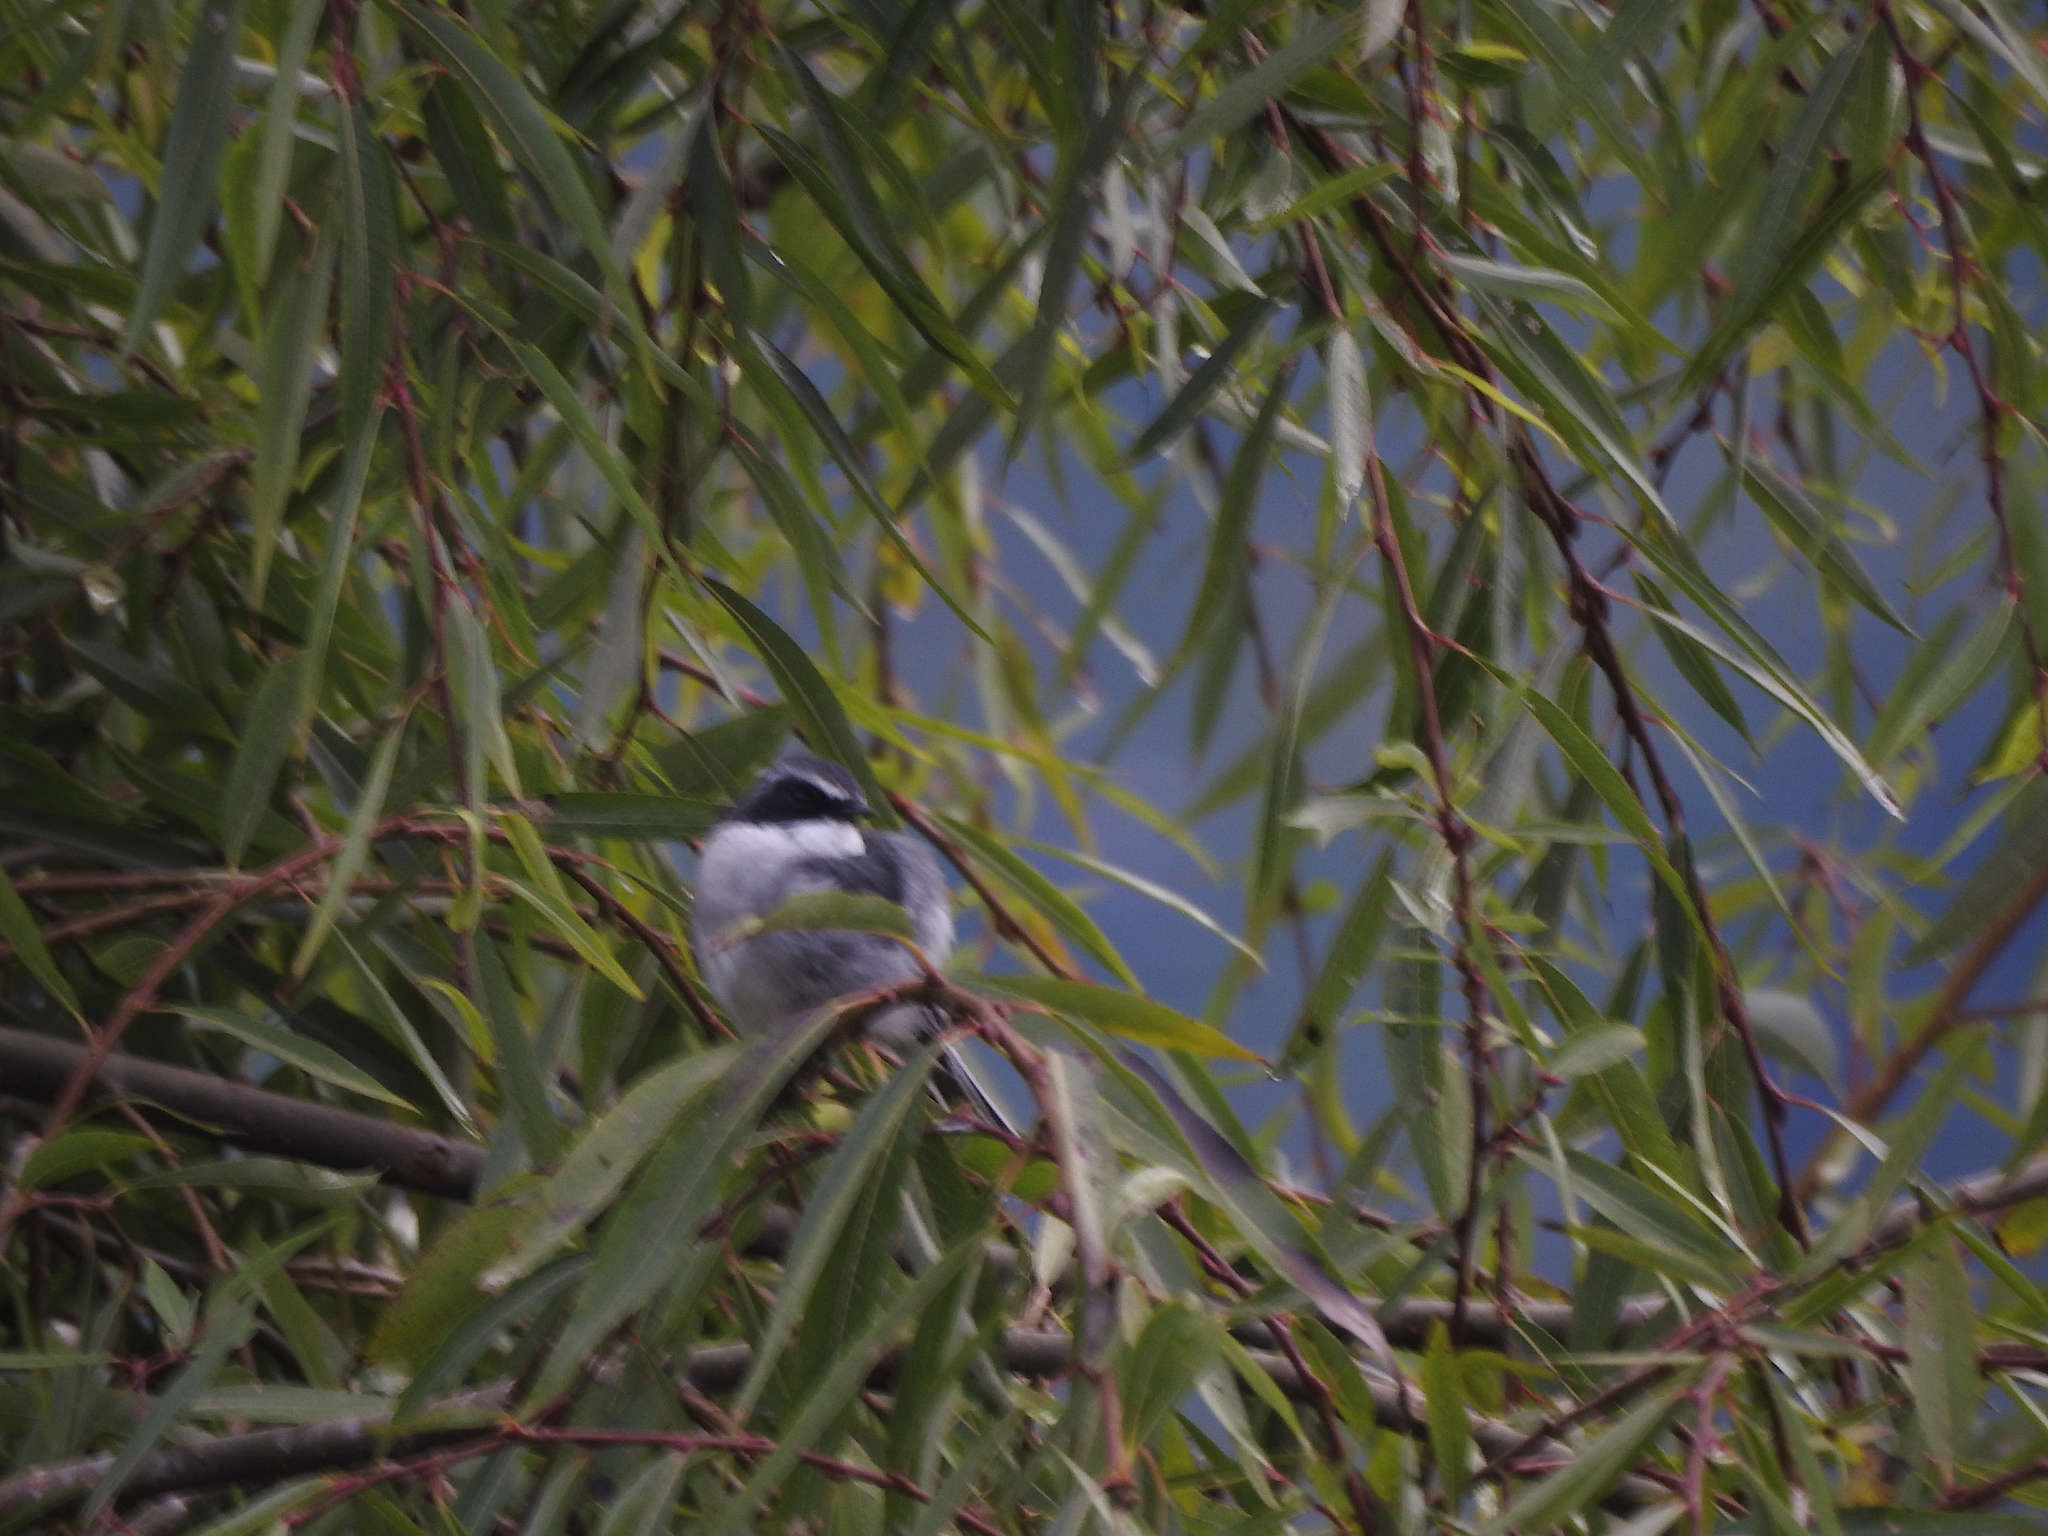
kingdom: Animalia
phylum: Chordata
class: Aves
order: Passeriformes
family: Muscicapidae
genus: Saxicola
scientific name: Saxicola ferreus
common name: Grey bush chat
